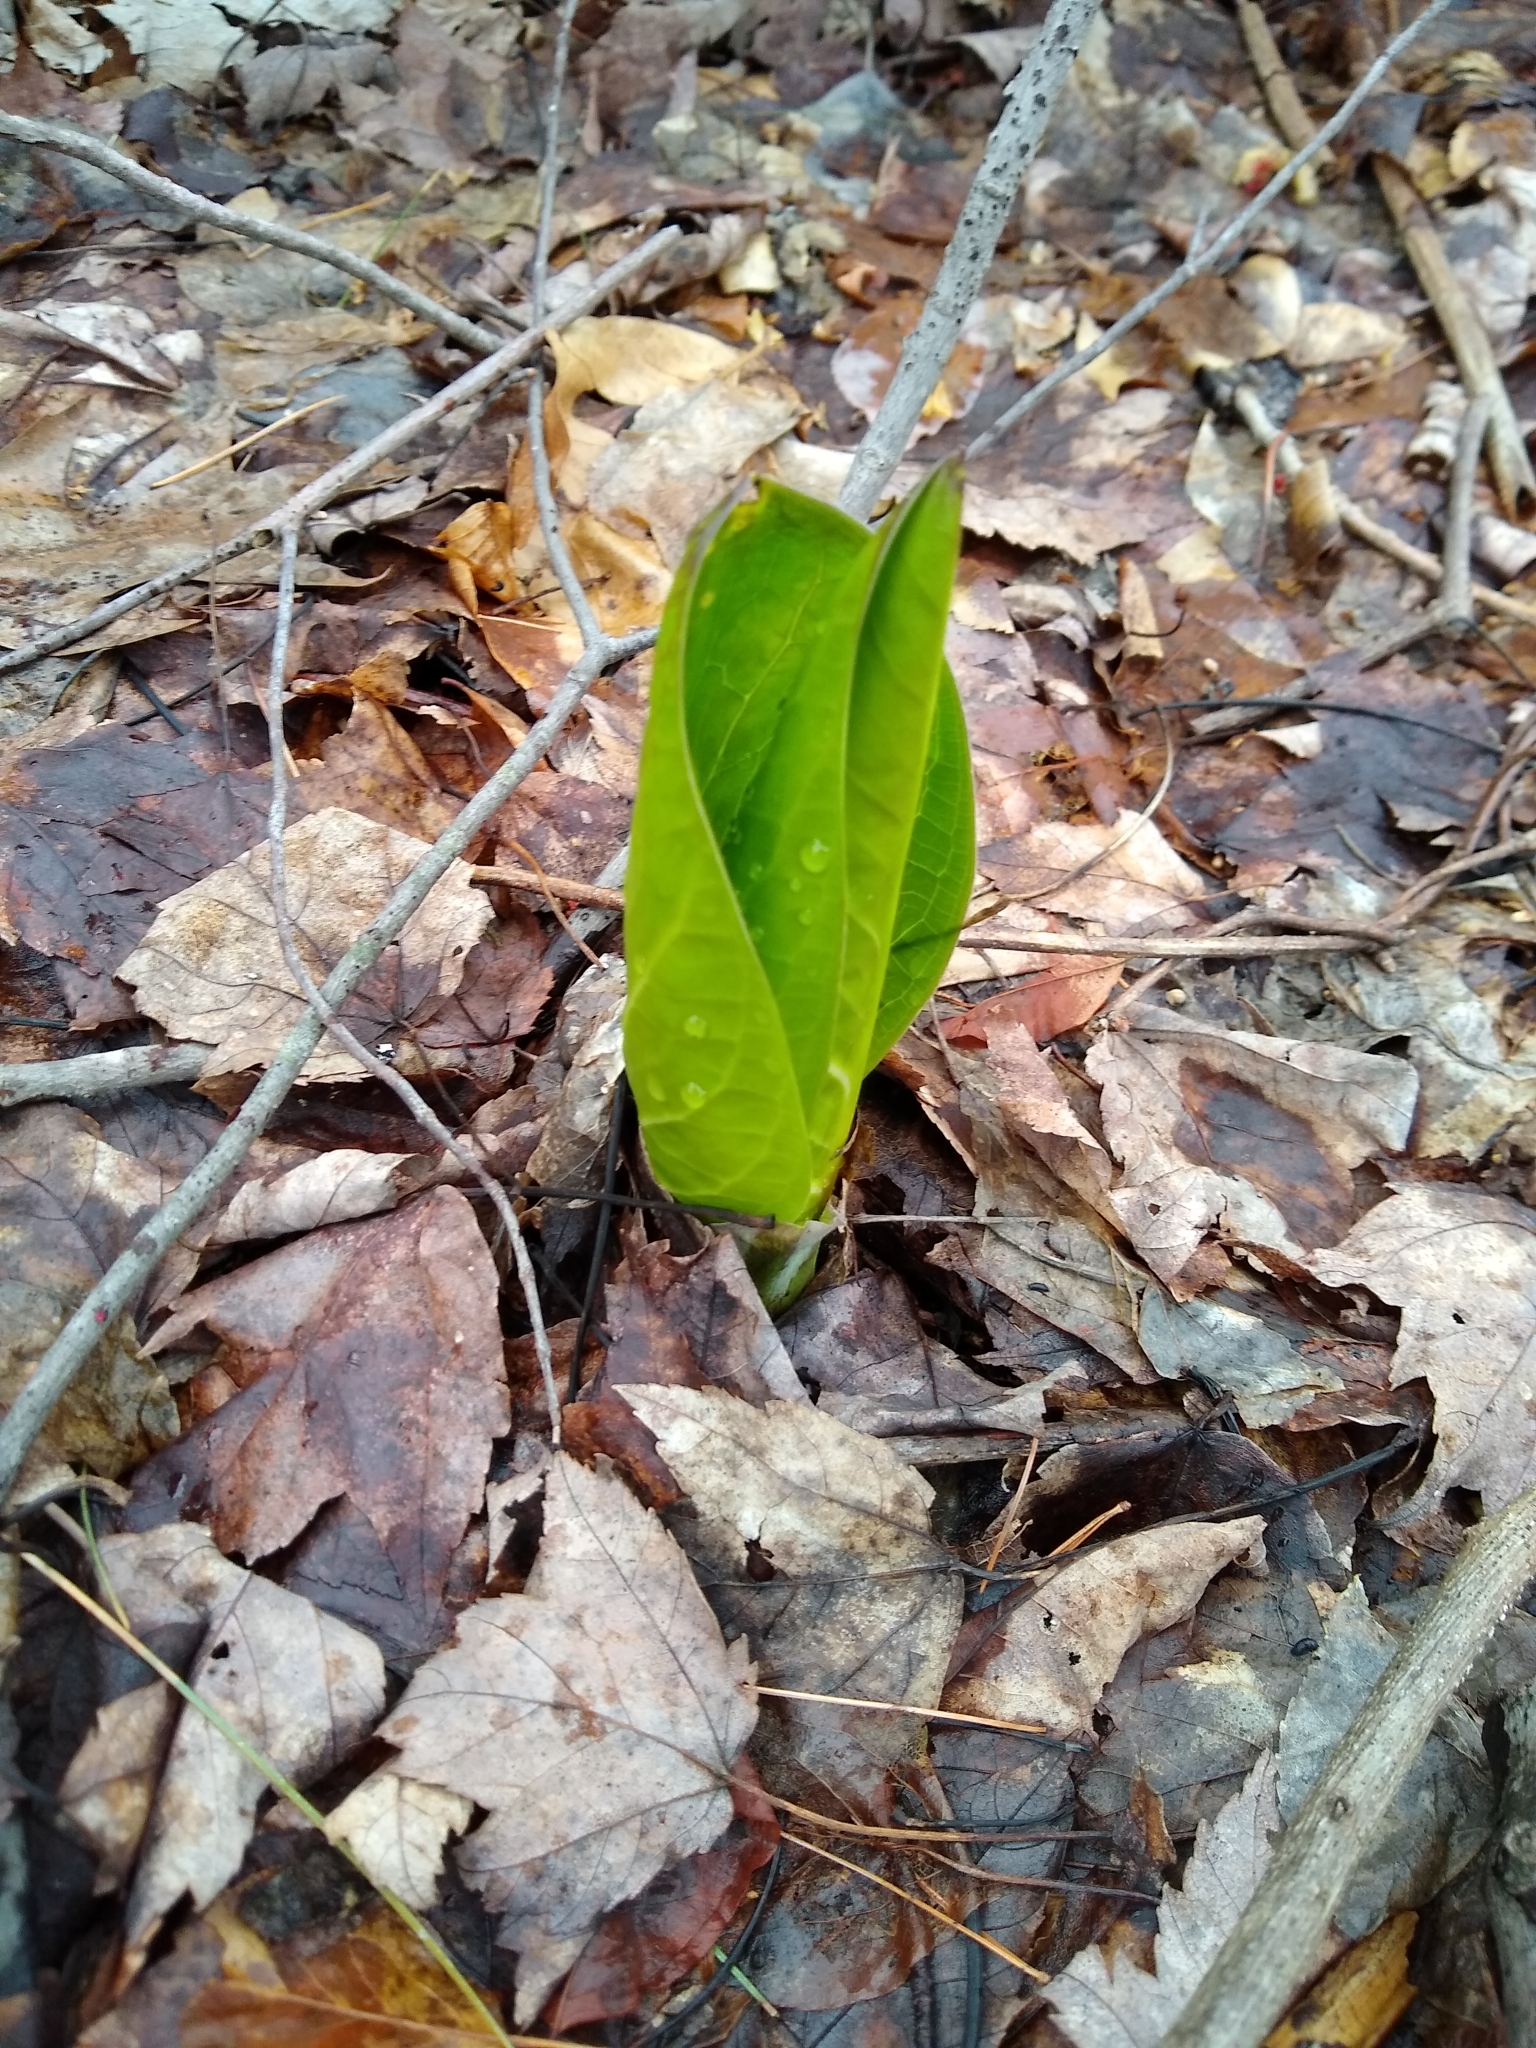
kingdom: Plantae
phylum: Tracheophyta
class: Liliopsida
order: Alismatales
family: Araceae
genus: Symplocarpus
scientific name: Symplocarpus foetidus
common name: Eastern skunk cabbage
